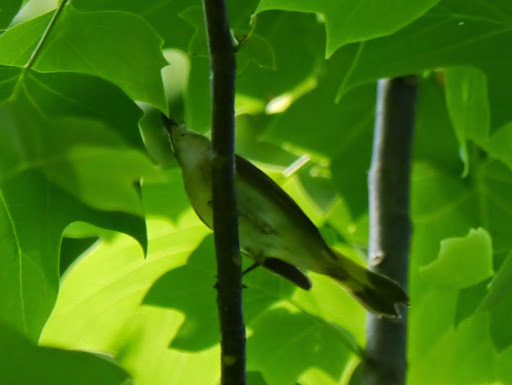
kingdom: Animalia
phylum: Chordata
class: Aves
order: Passeriformes
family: Parulidae
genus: Setophaga
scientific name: Setophaga ruticilla
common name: American redstart
